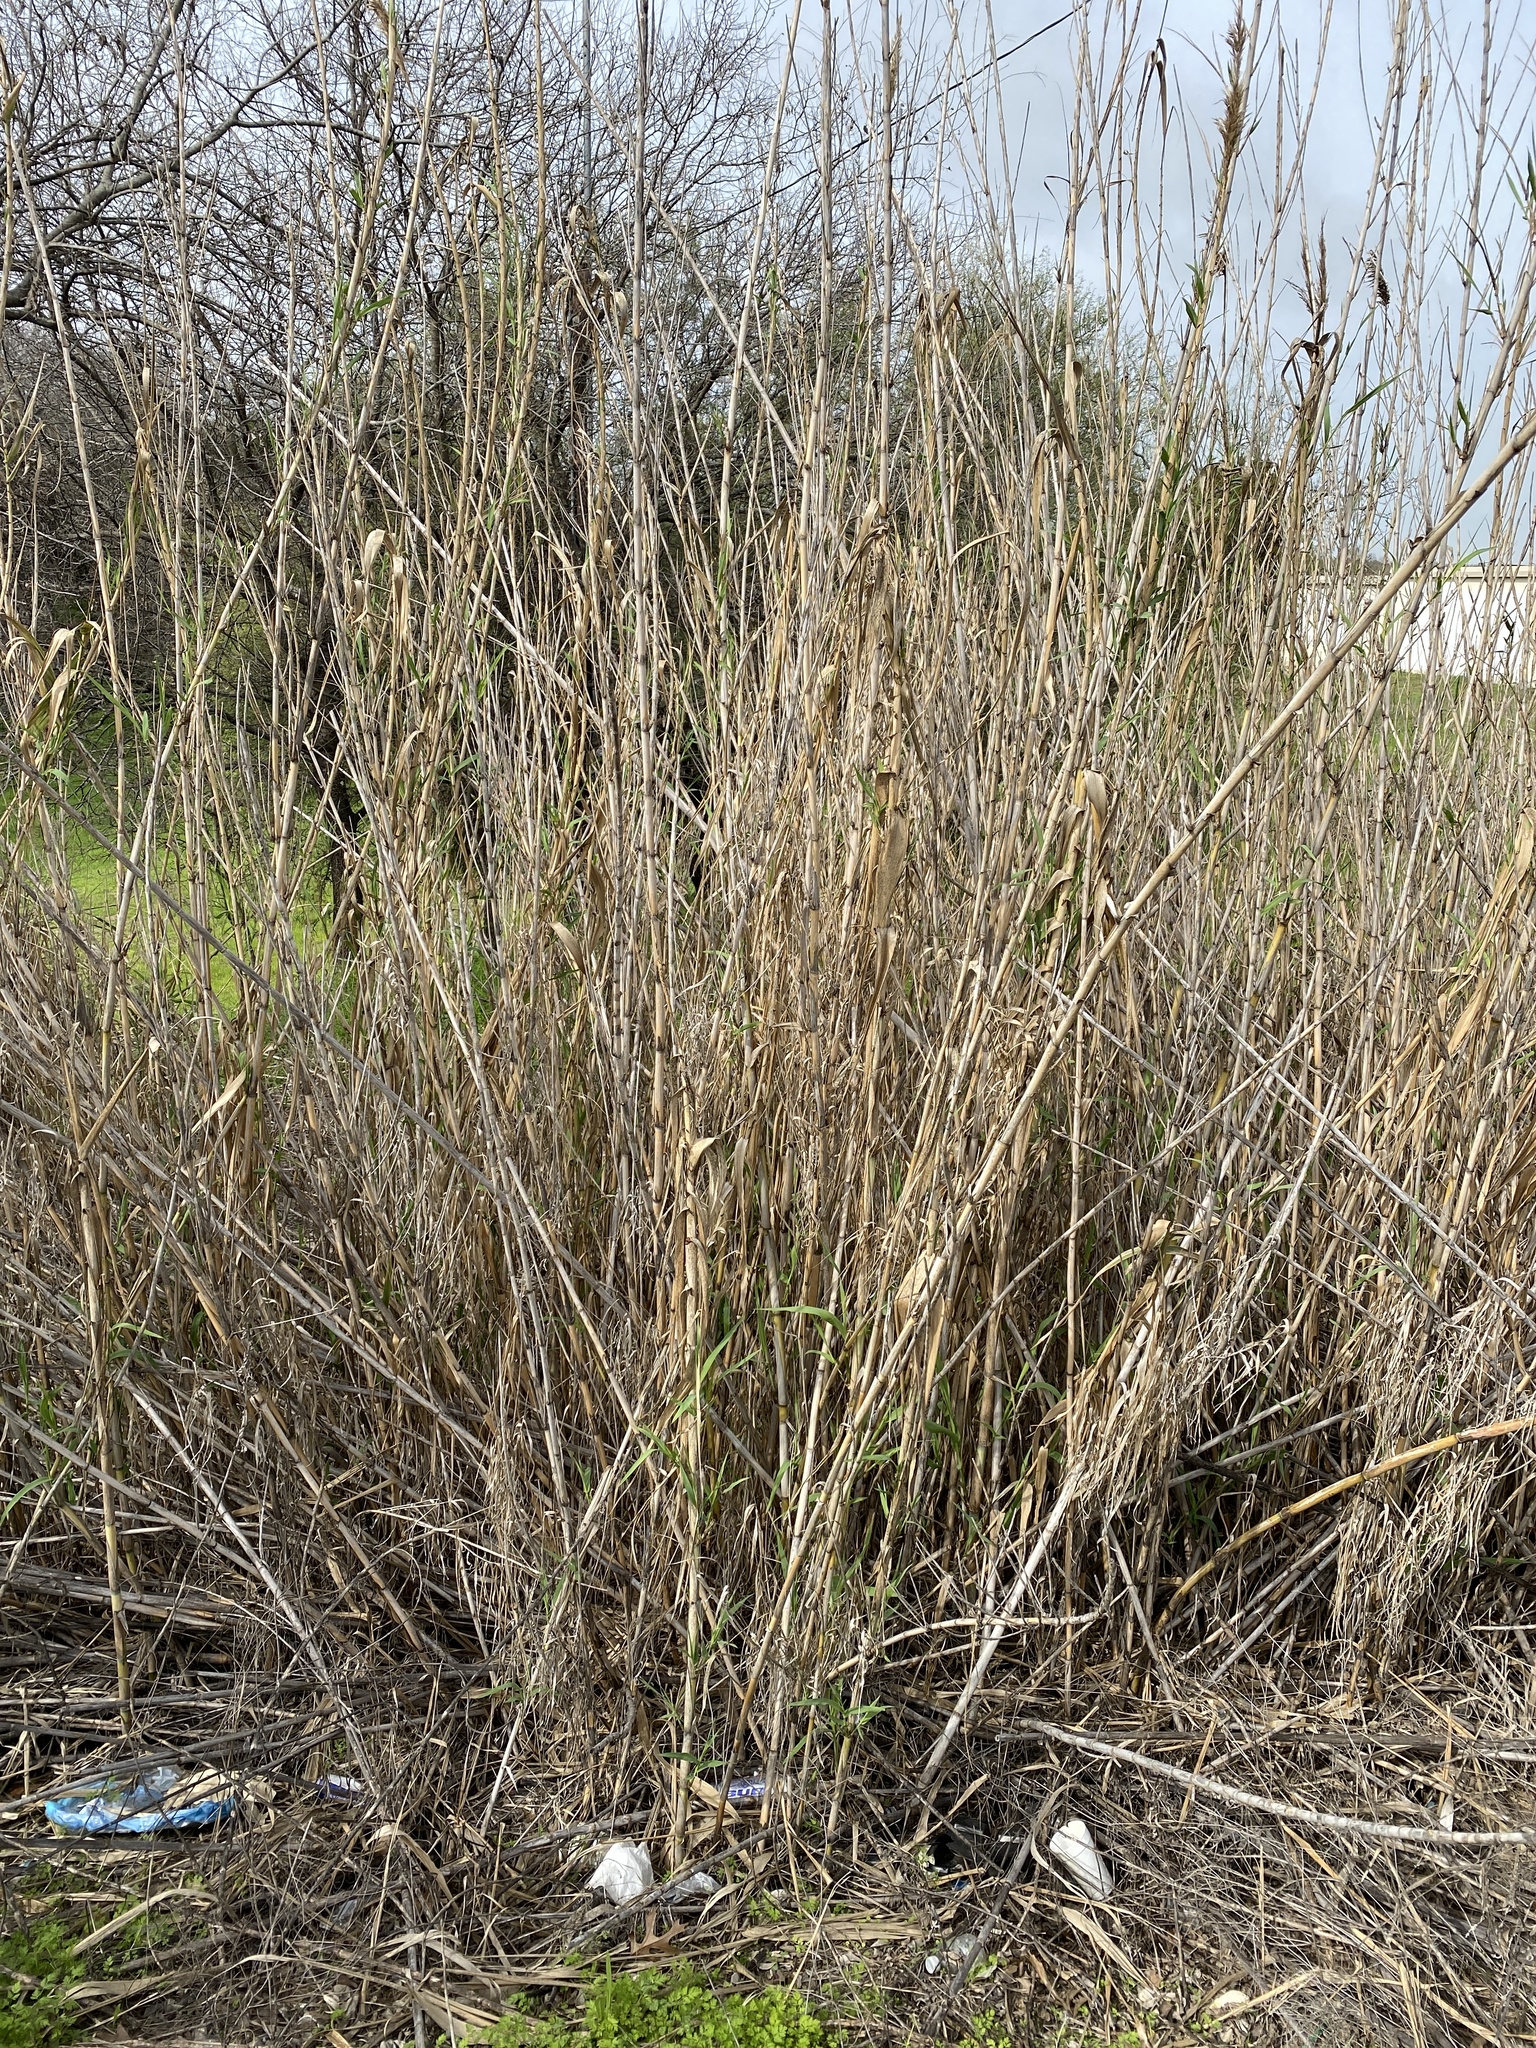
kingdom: Plantae
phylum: Tracheophyta
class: Liliopsida
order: Poales
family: Poaceae
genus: Arundo
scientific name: Arundo donax
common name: Giant reed
